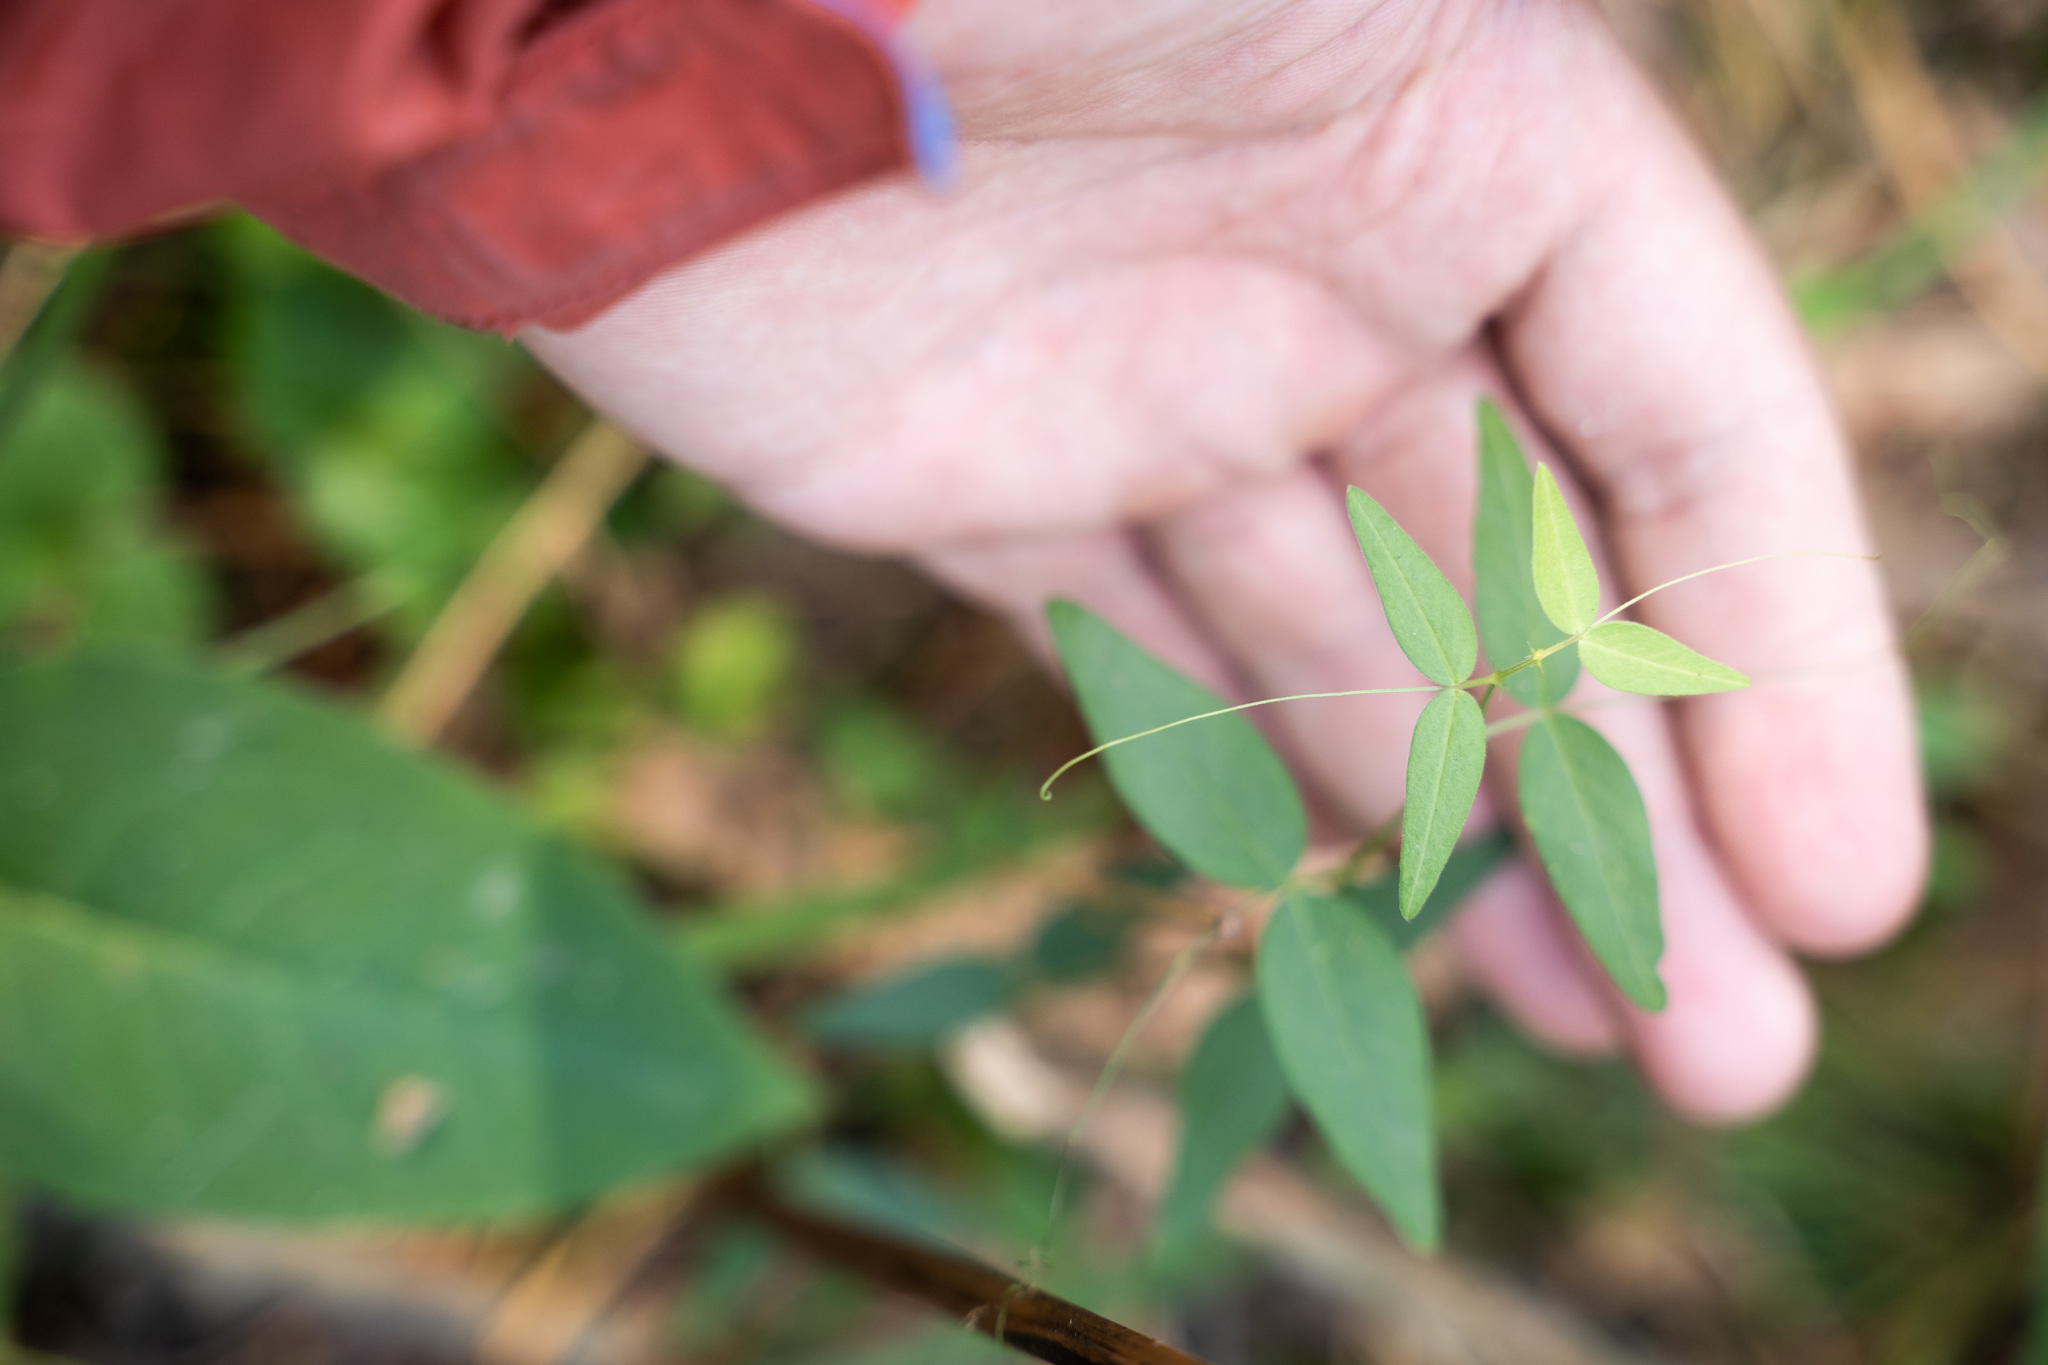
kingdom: Plantae
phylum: Tracheophyta
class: Magnoliopsida
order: Fabales
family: Fabaceae
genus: Vicia
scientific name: Vicia sepium
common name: Bush vetch
